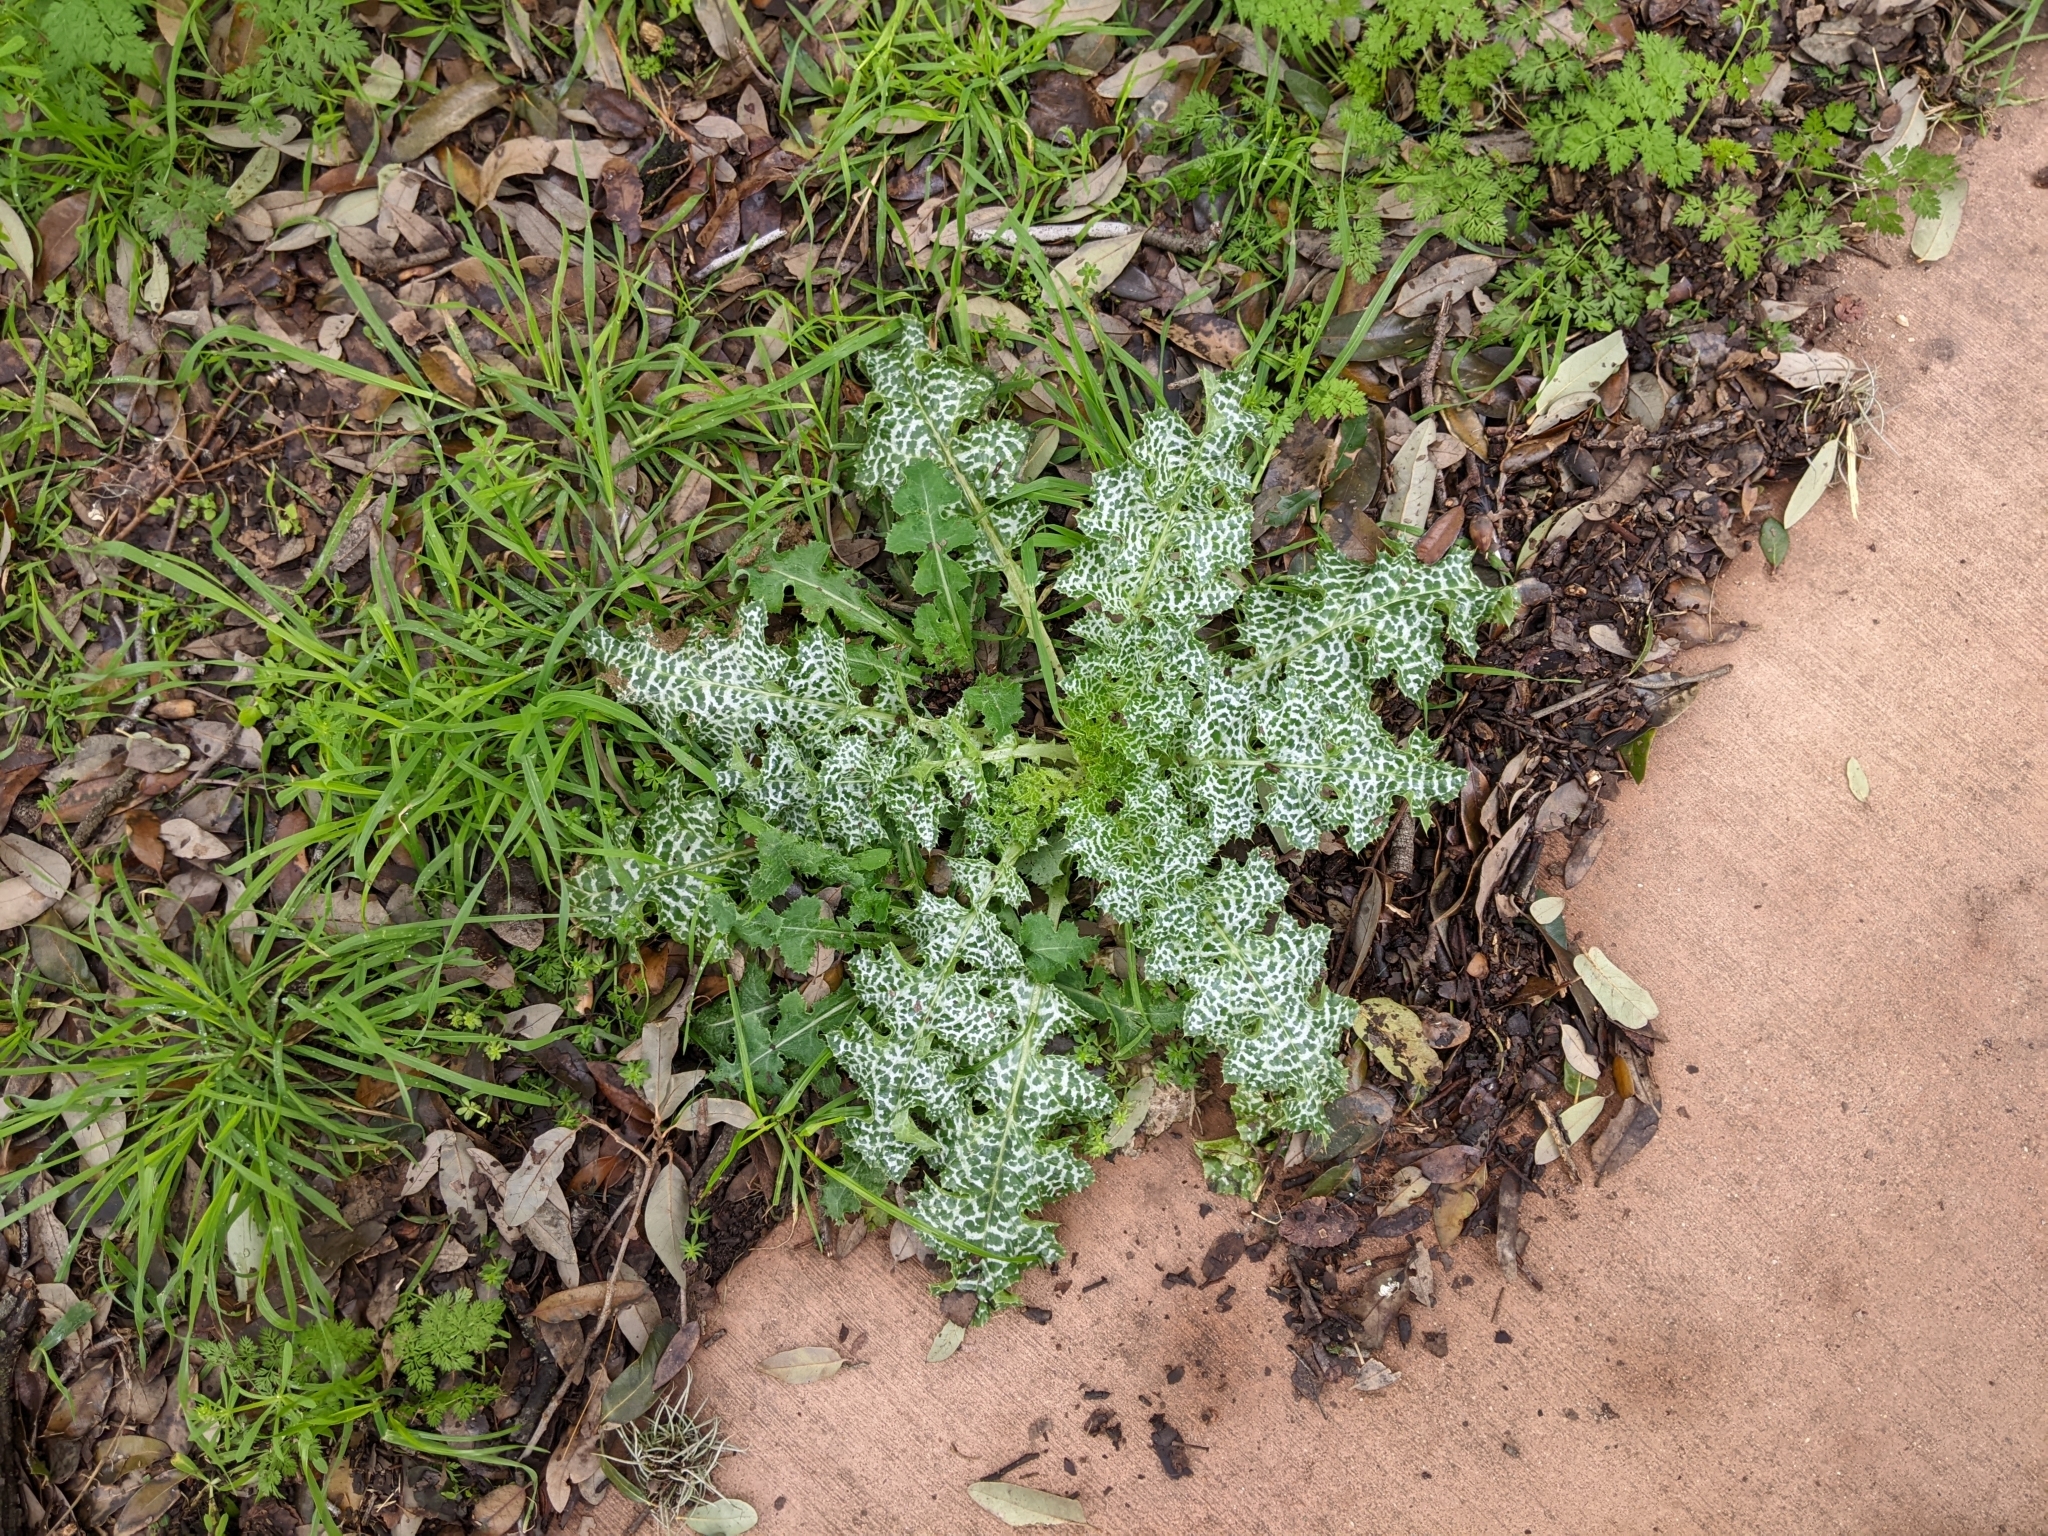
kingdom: Plantae
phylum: Tracheophyta
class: Magnoliopsida
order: Asterales
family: Asteraceae
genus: Silybum
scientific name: Silybum marianum
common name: Milk thistle
